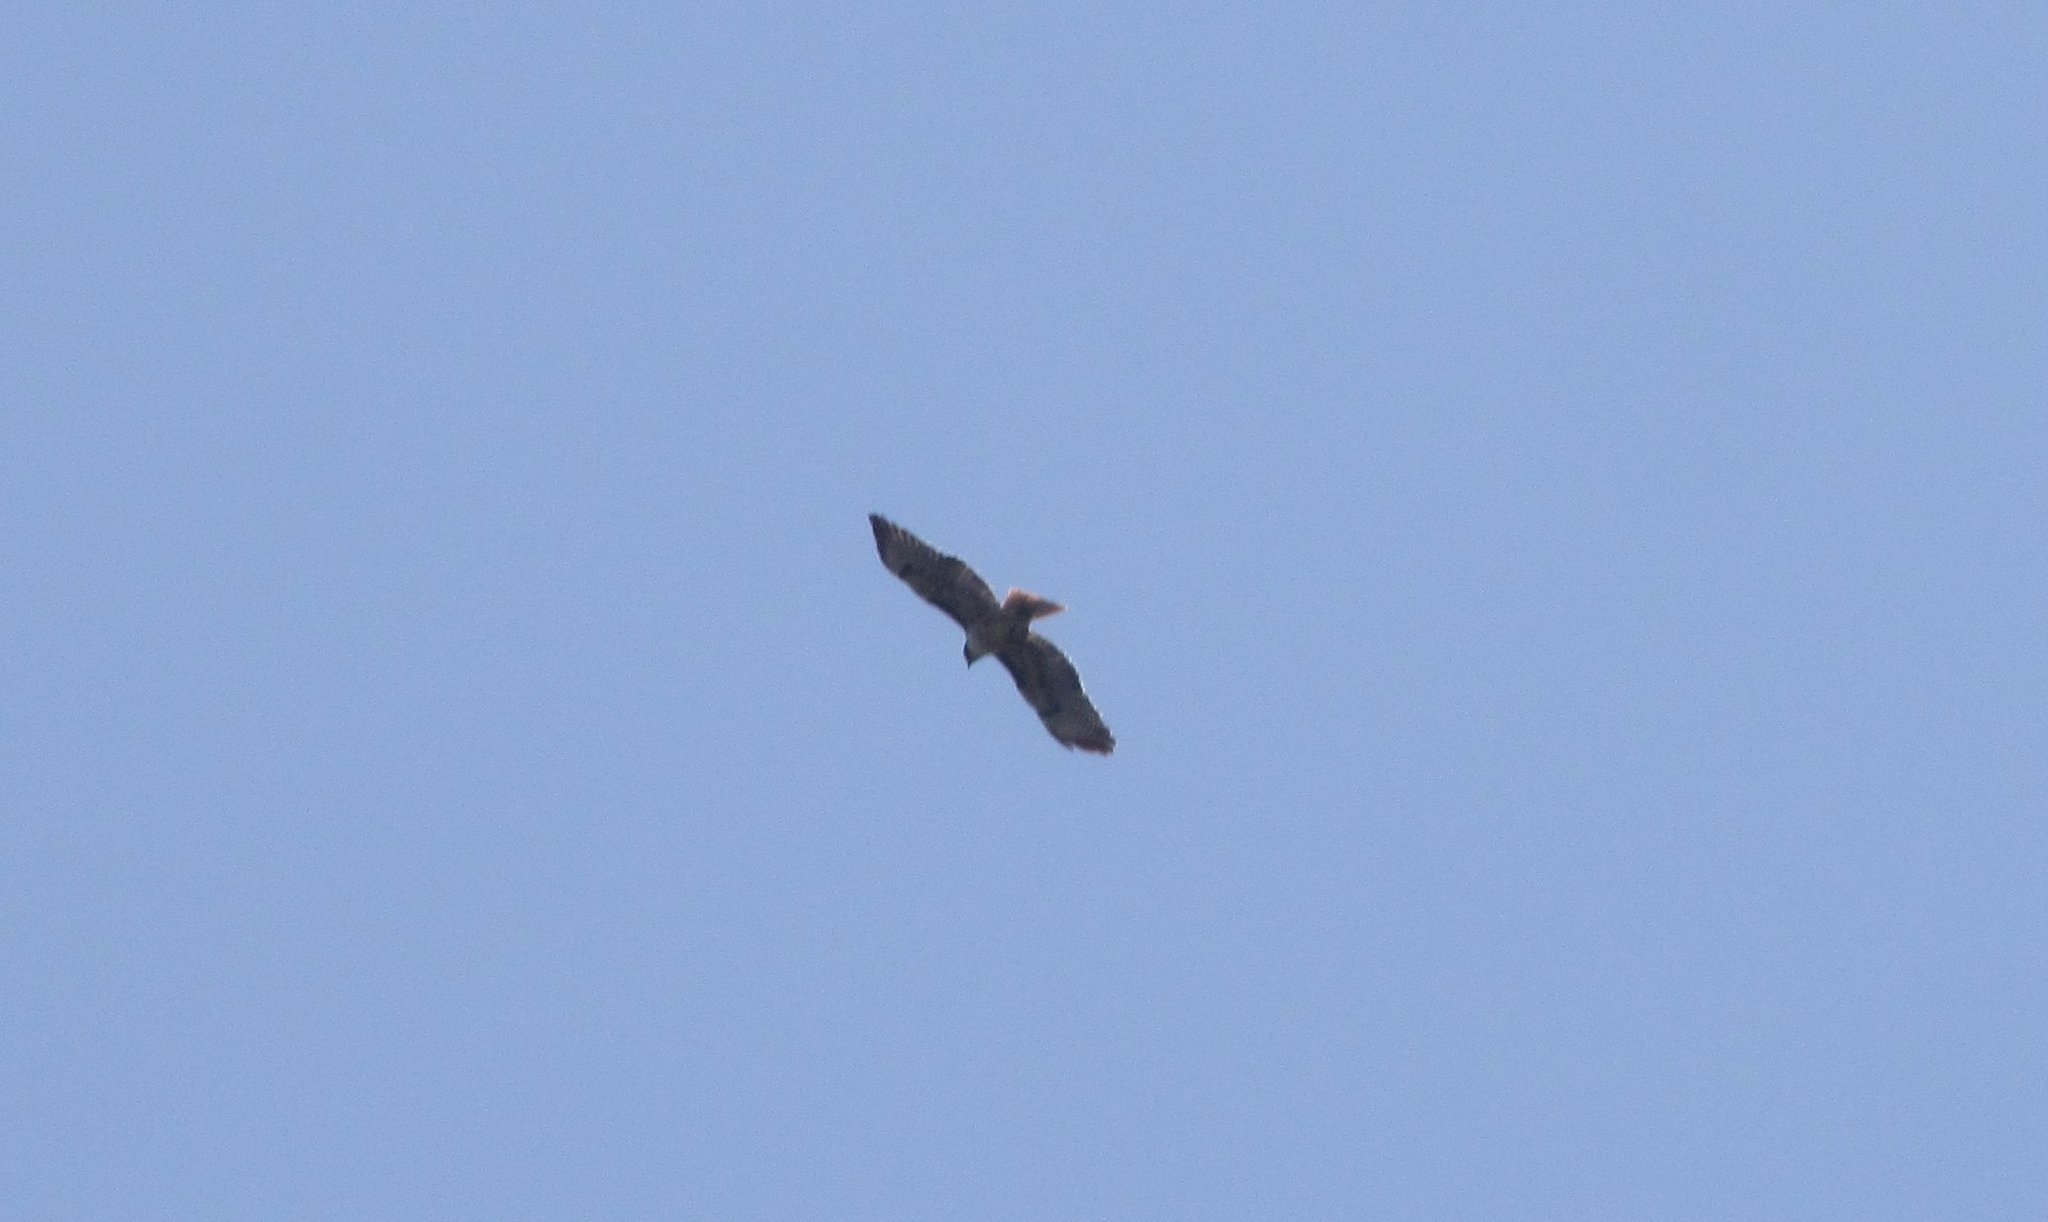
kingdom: Animalia
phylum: Chordata
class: Aves
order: Accipitriformes
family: Accipitridae
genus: Buteo
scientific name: Buteo jamaicensis
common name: Red-tailed hawk
